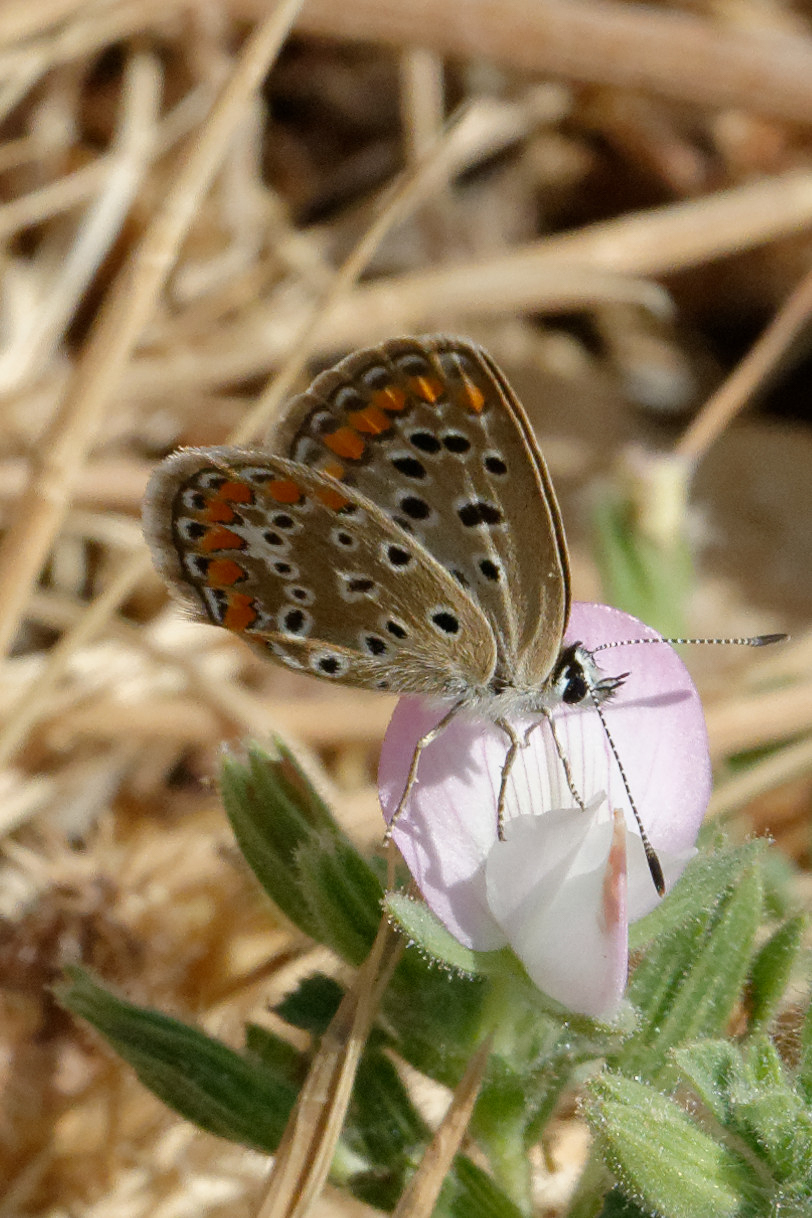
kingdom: Animalia
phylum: Arthropoda
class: Insecta
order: Lepidoptera
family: Lycaenidae
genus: Polyommatus
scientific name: Polyommatus celina
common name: Austaut's blue
